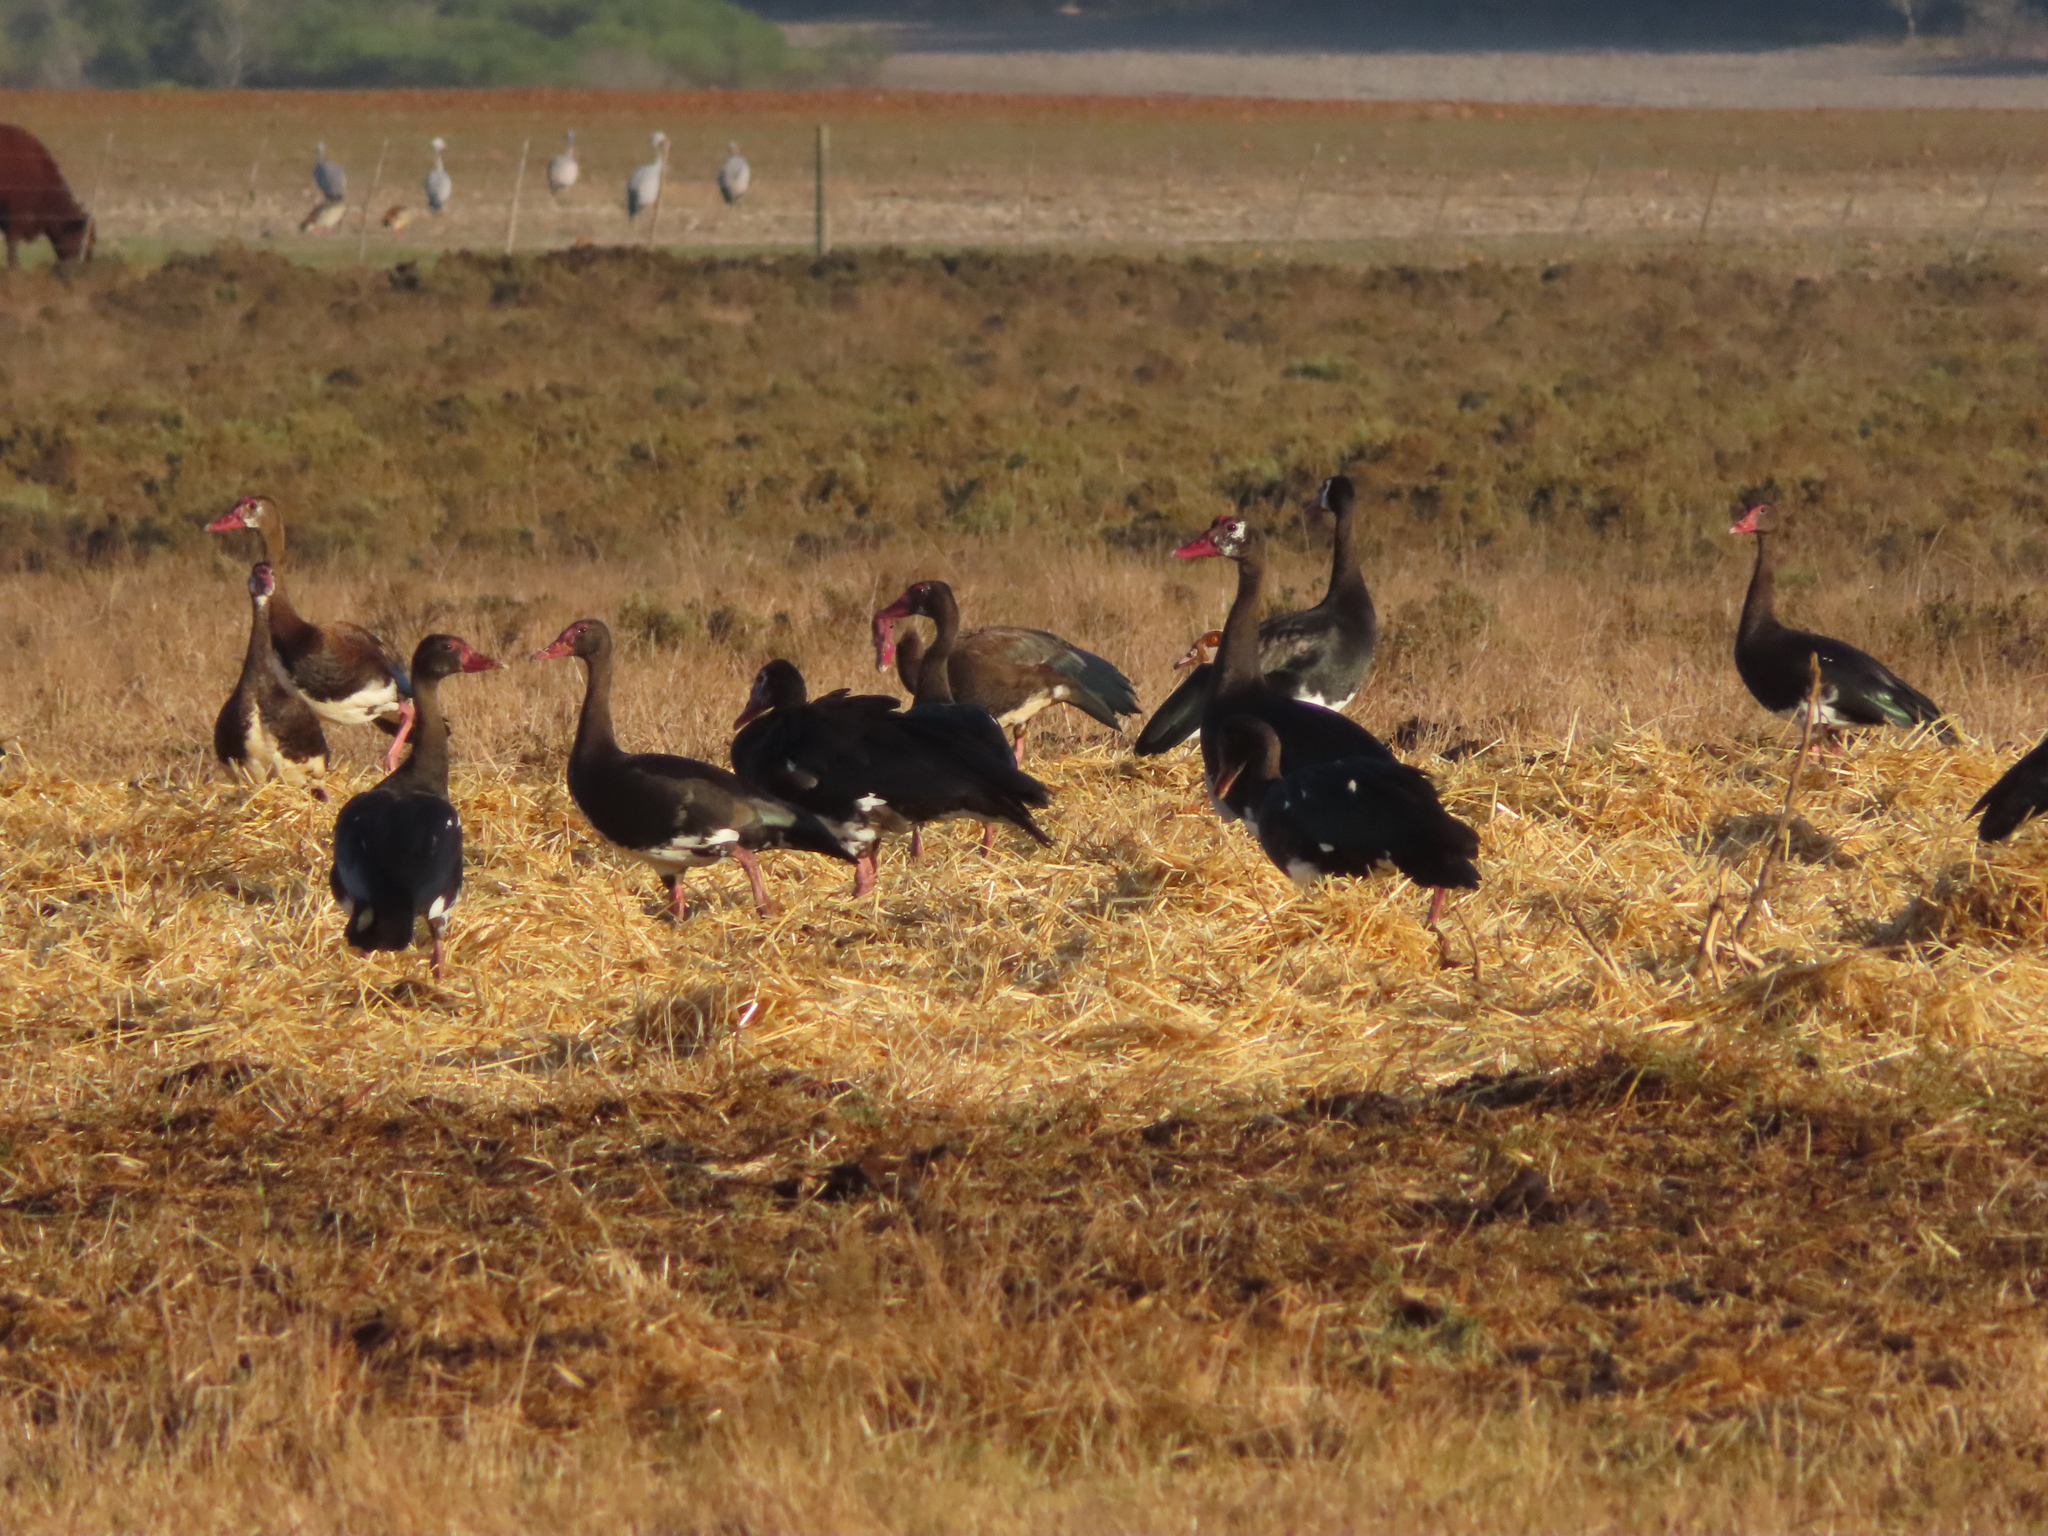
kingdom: Animalia
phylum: Chordata
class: Aves
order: Gruiformes
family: Gruidae
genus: Anthropoides
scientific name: Anthropoides paradiseus
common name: Blue crane
